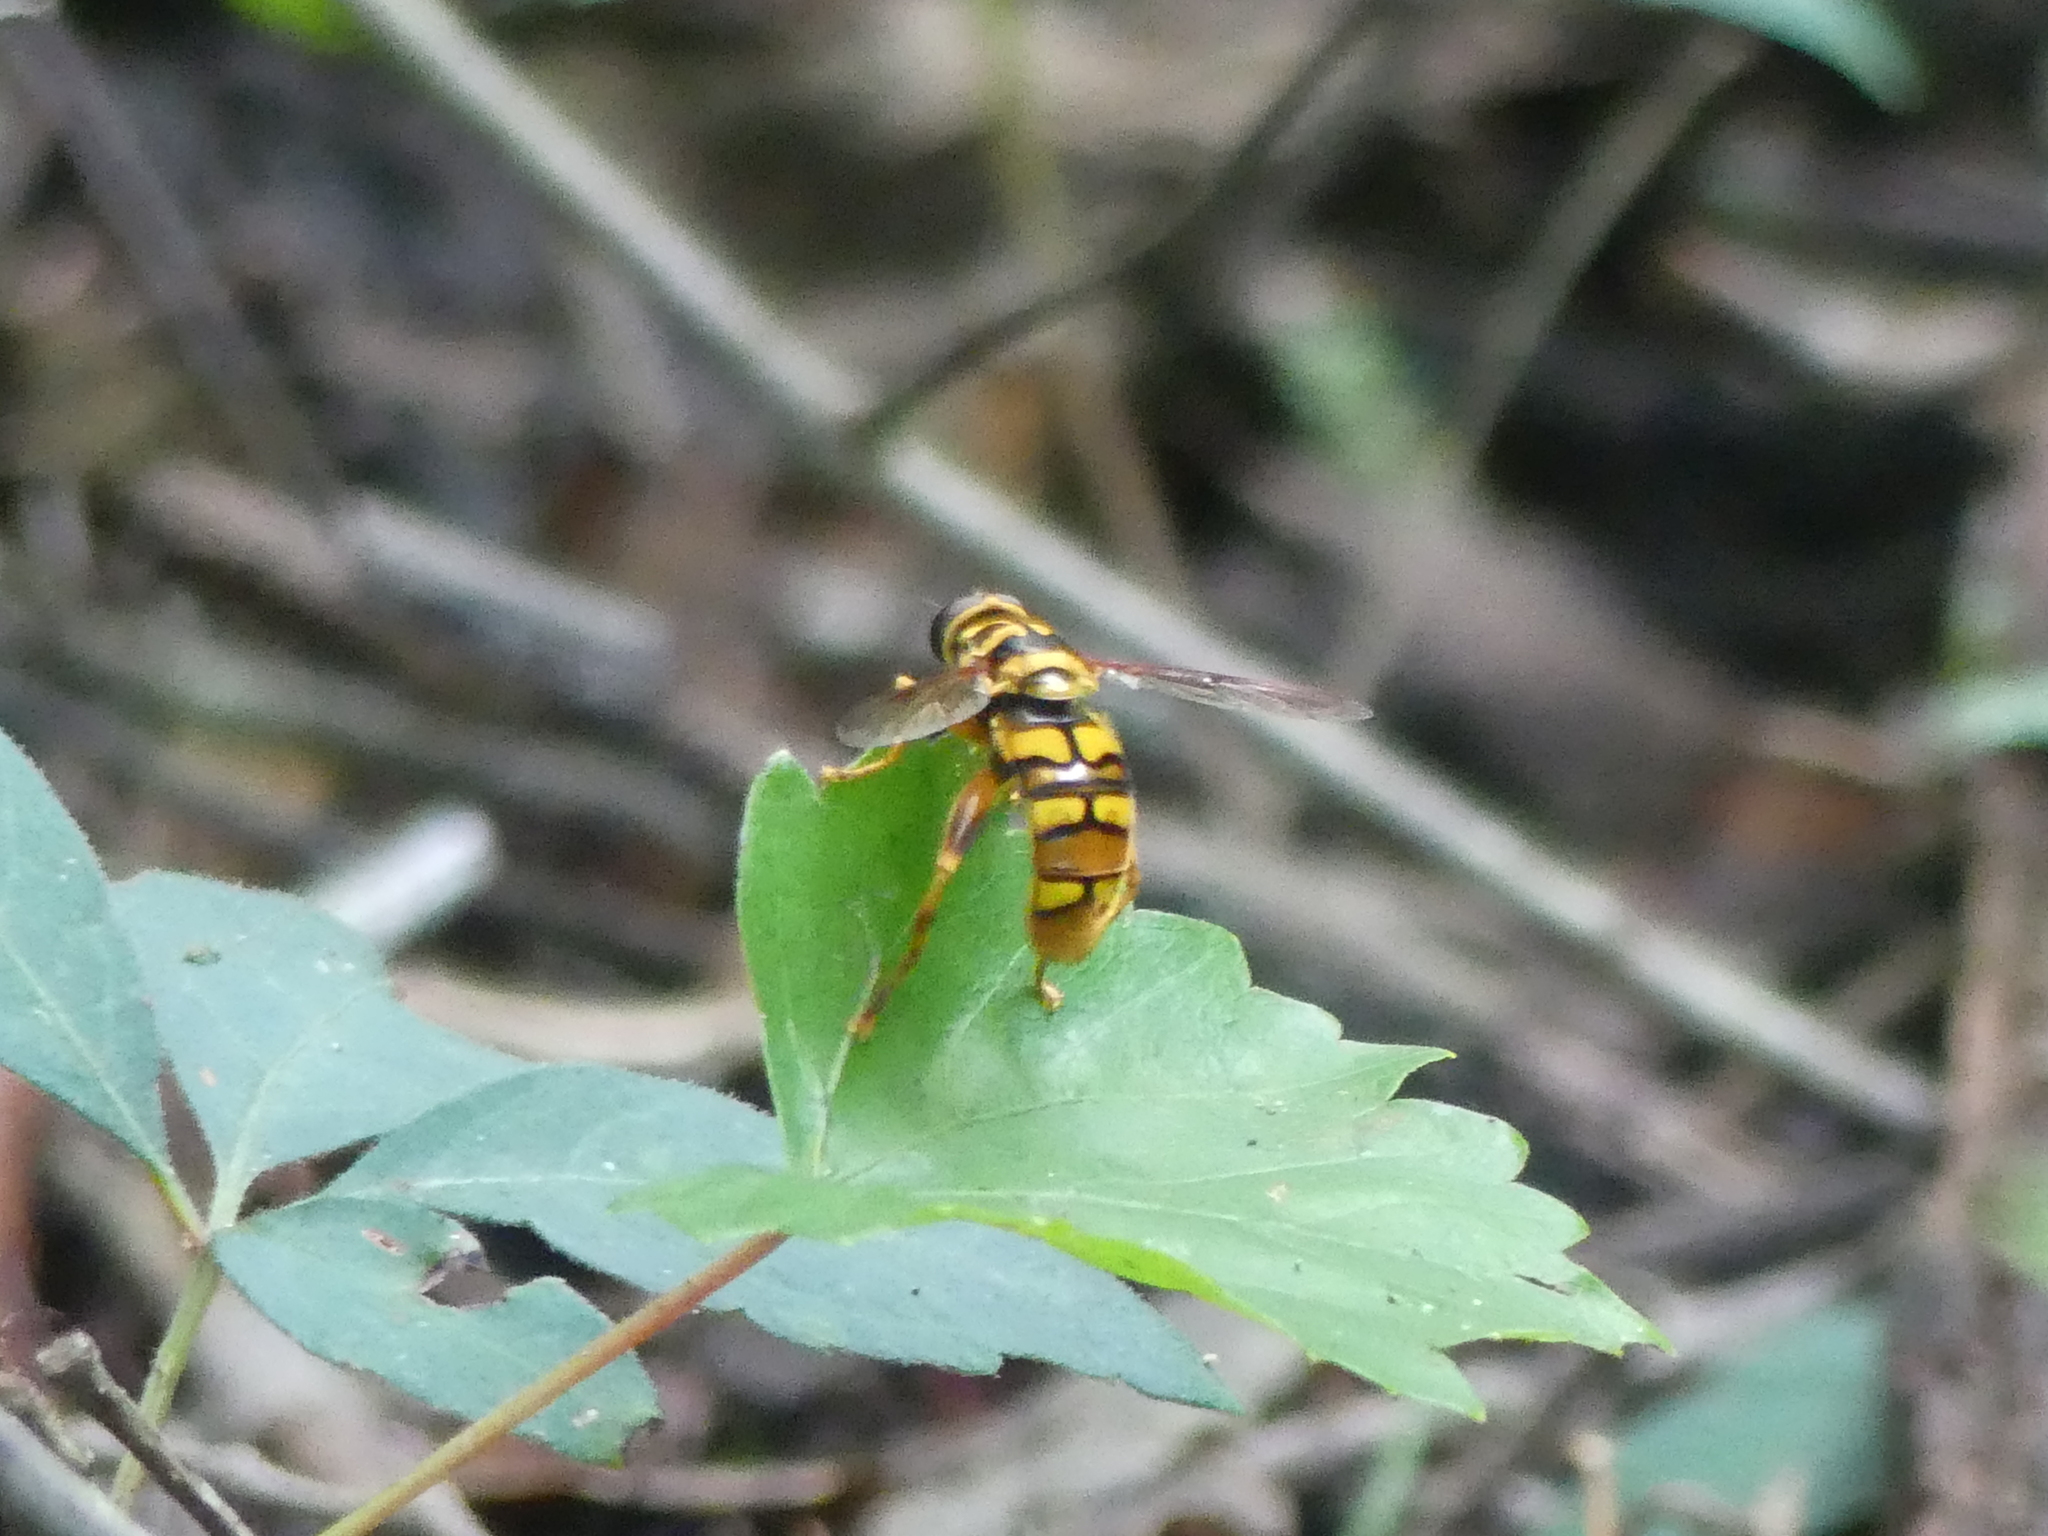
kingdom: Animalia
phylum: Arthropoda
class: Insecta
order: Diptera
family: Syrphidae
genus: Milesia
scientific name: Milesia virginiensis
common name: Virginia giant
